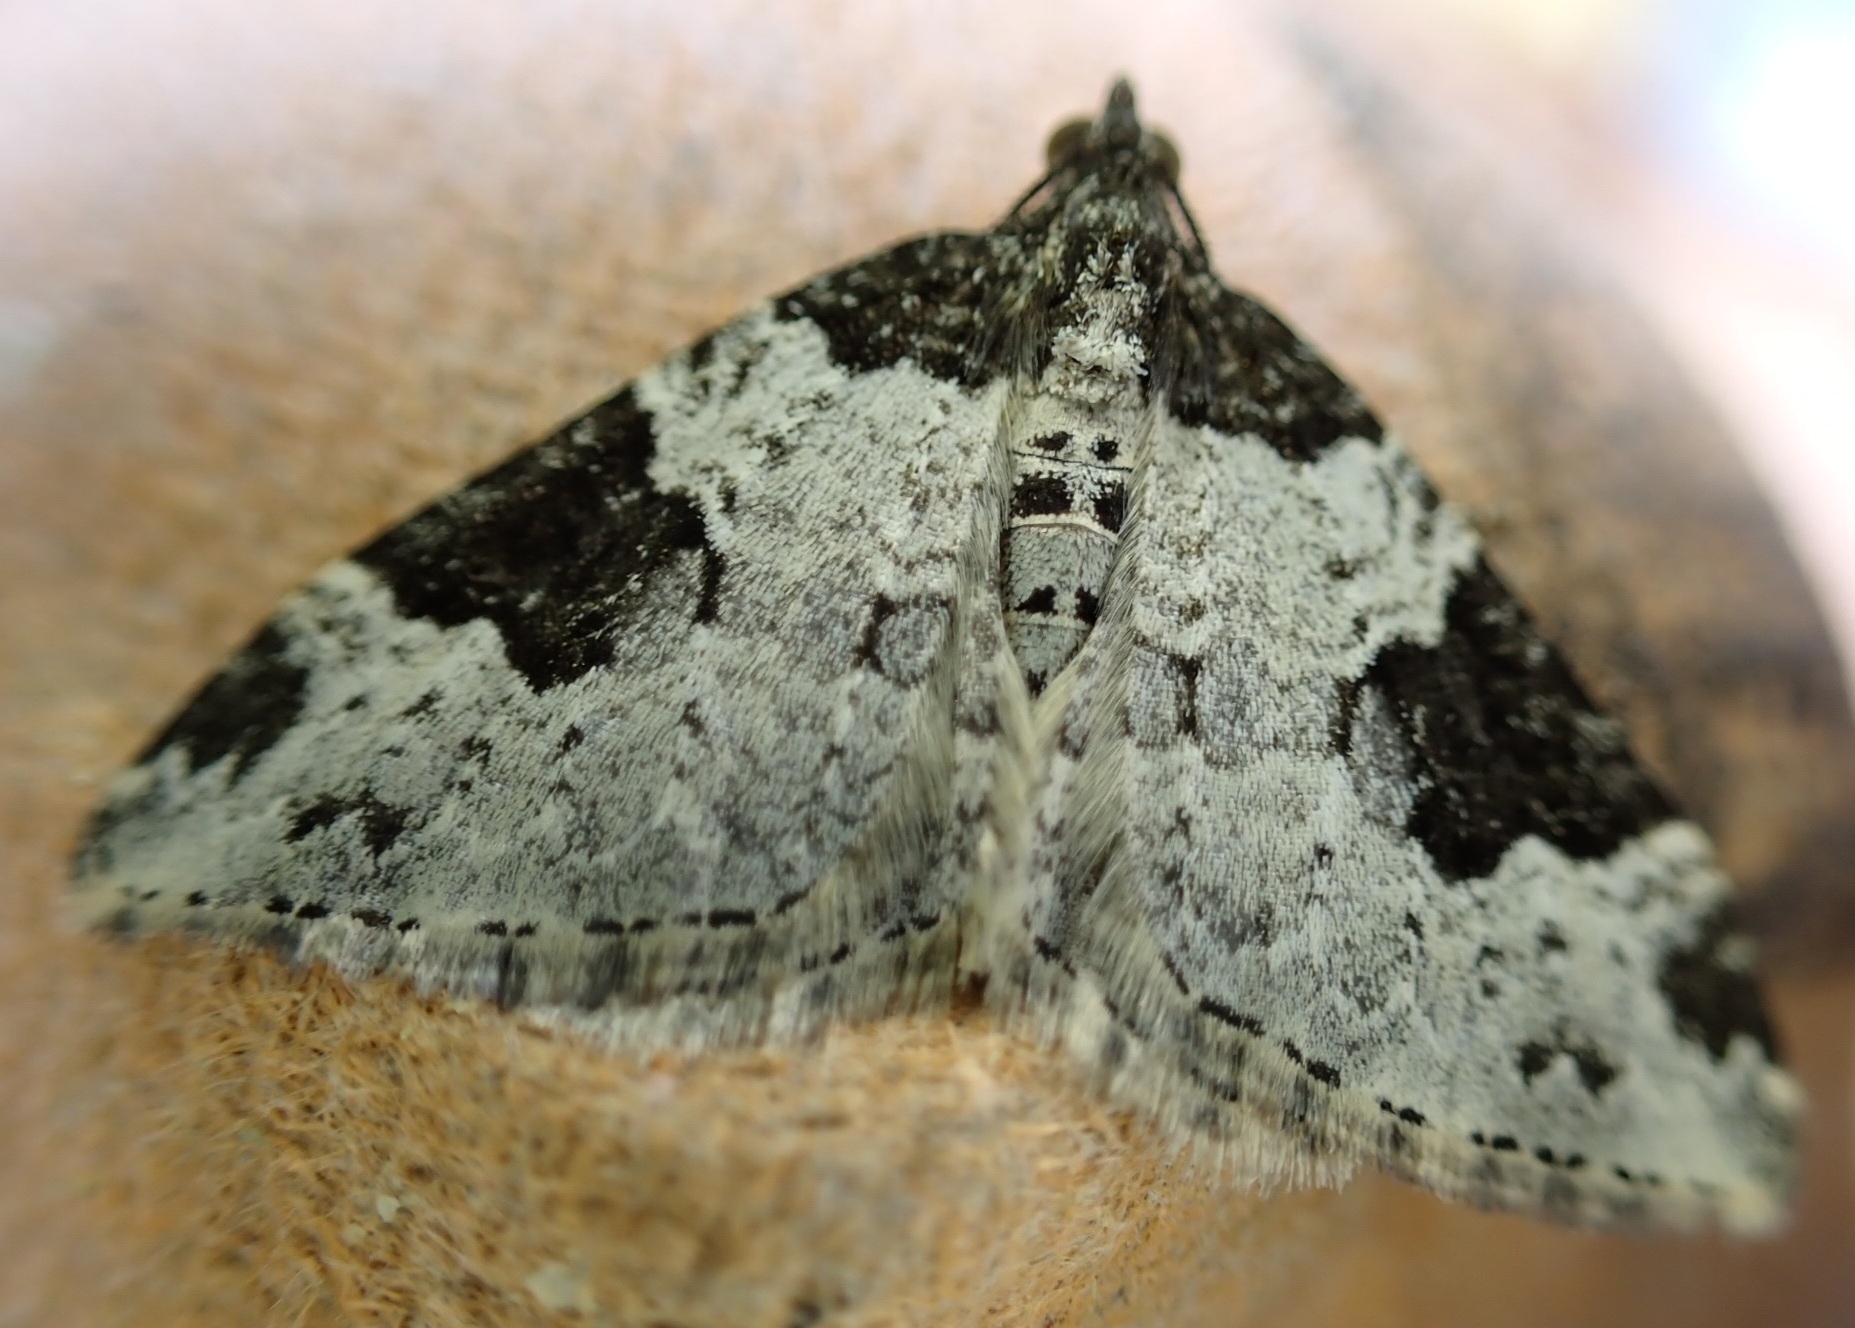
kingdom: Animalia
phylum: Arthropoda
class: Insecta
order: Lepidoptera
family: Geometridae
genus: Xanthorhoe
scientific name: Xanthorhoe fluctuata
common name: Garden carpet
